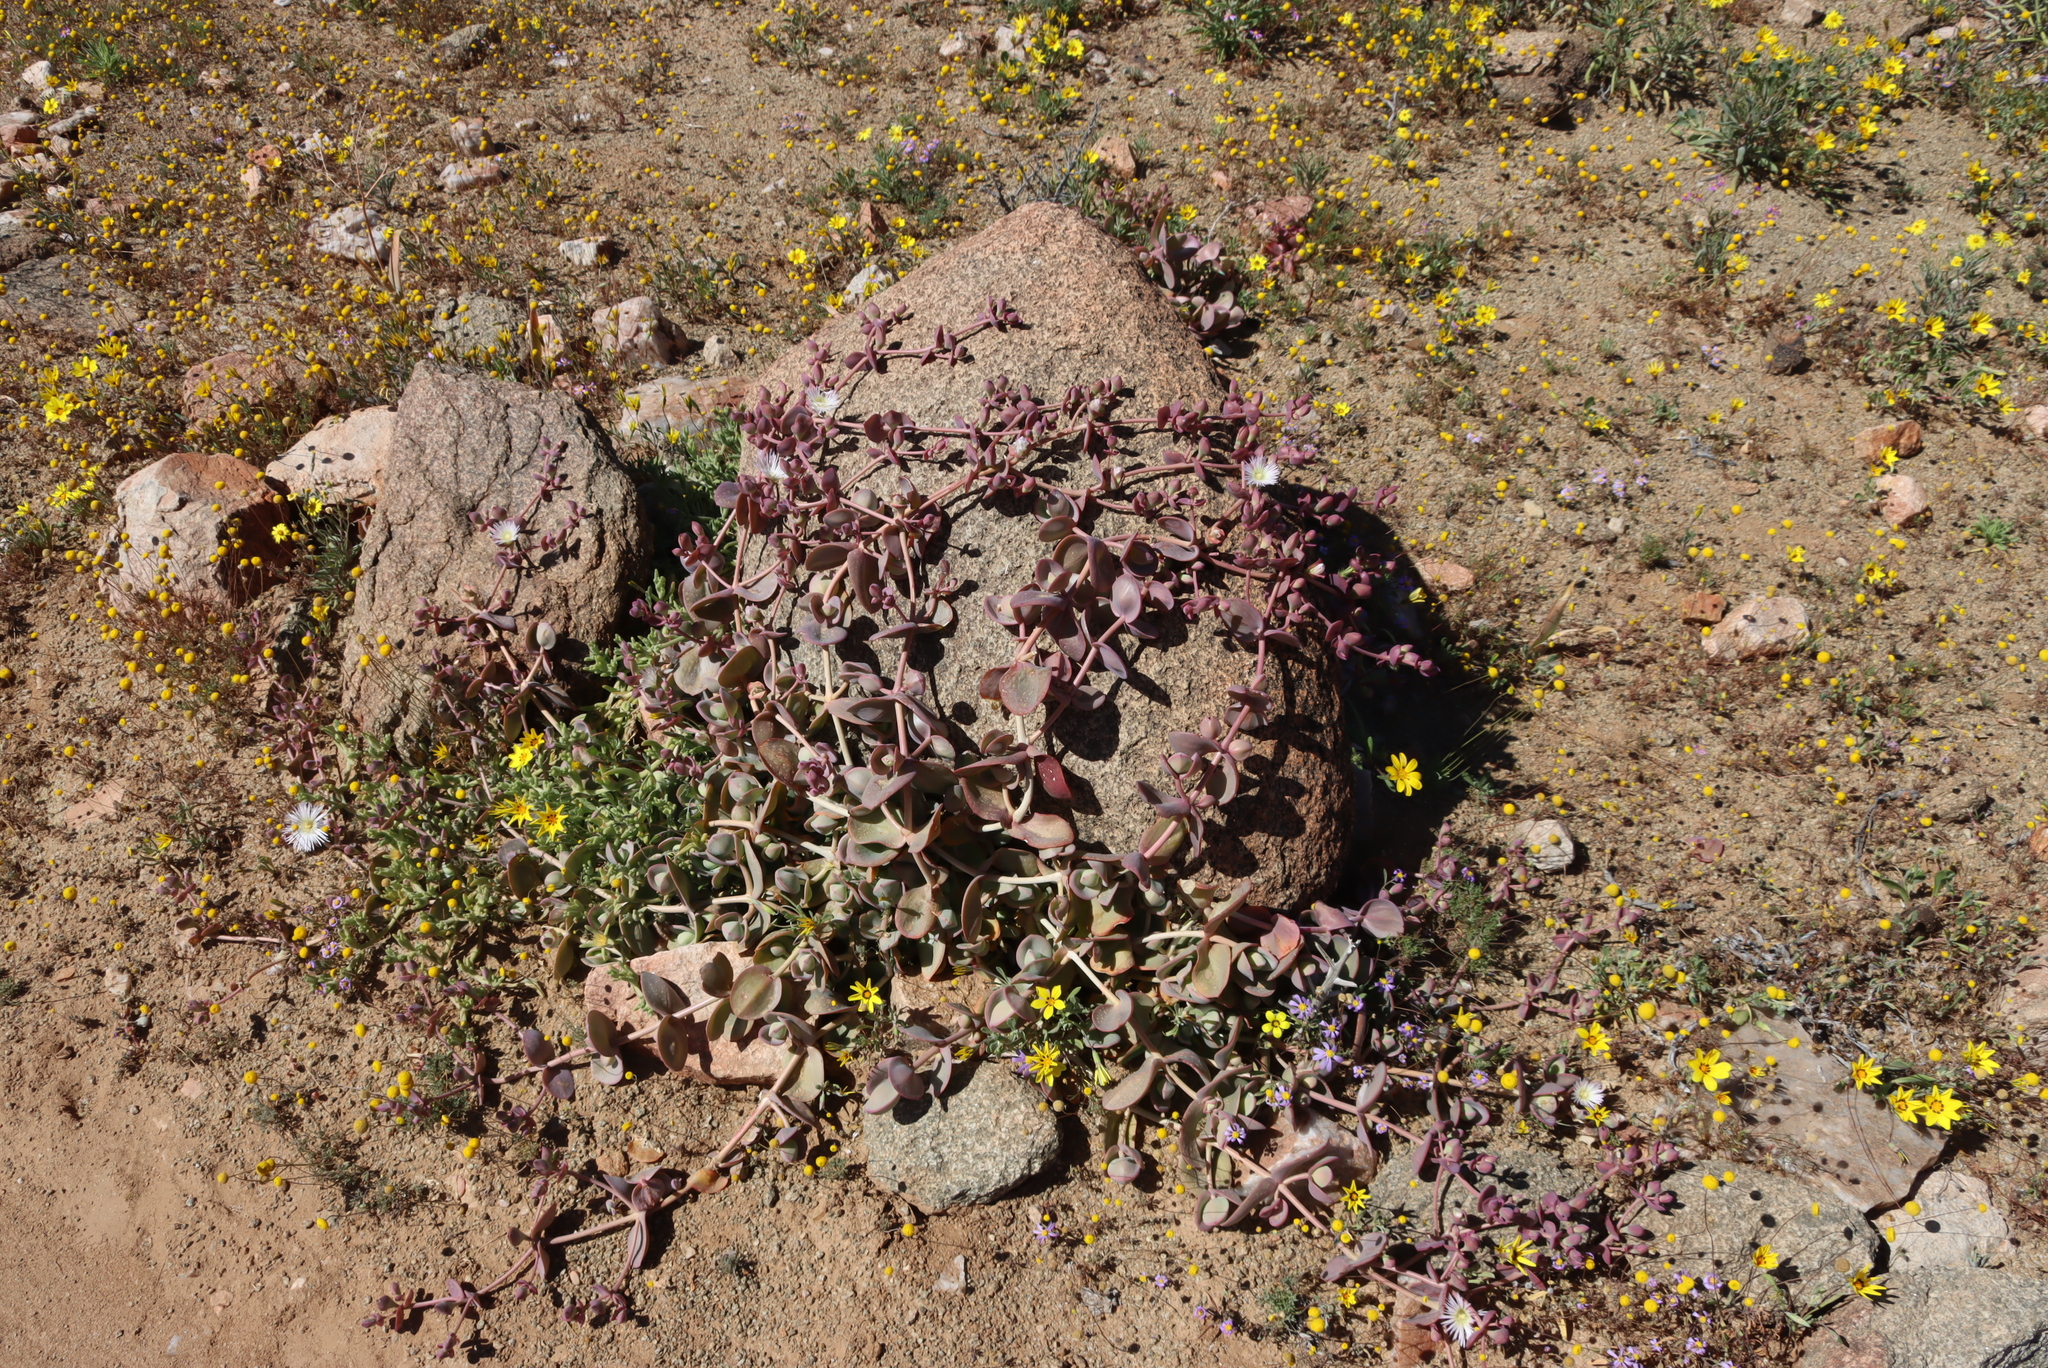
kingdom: Plantae
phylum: Tracheophyta
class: Magnoliopsida
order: Caryophyllales
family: Aizoaceae
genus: Mesembryanthemum
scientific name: Mesembryanthemum sladenianum
